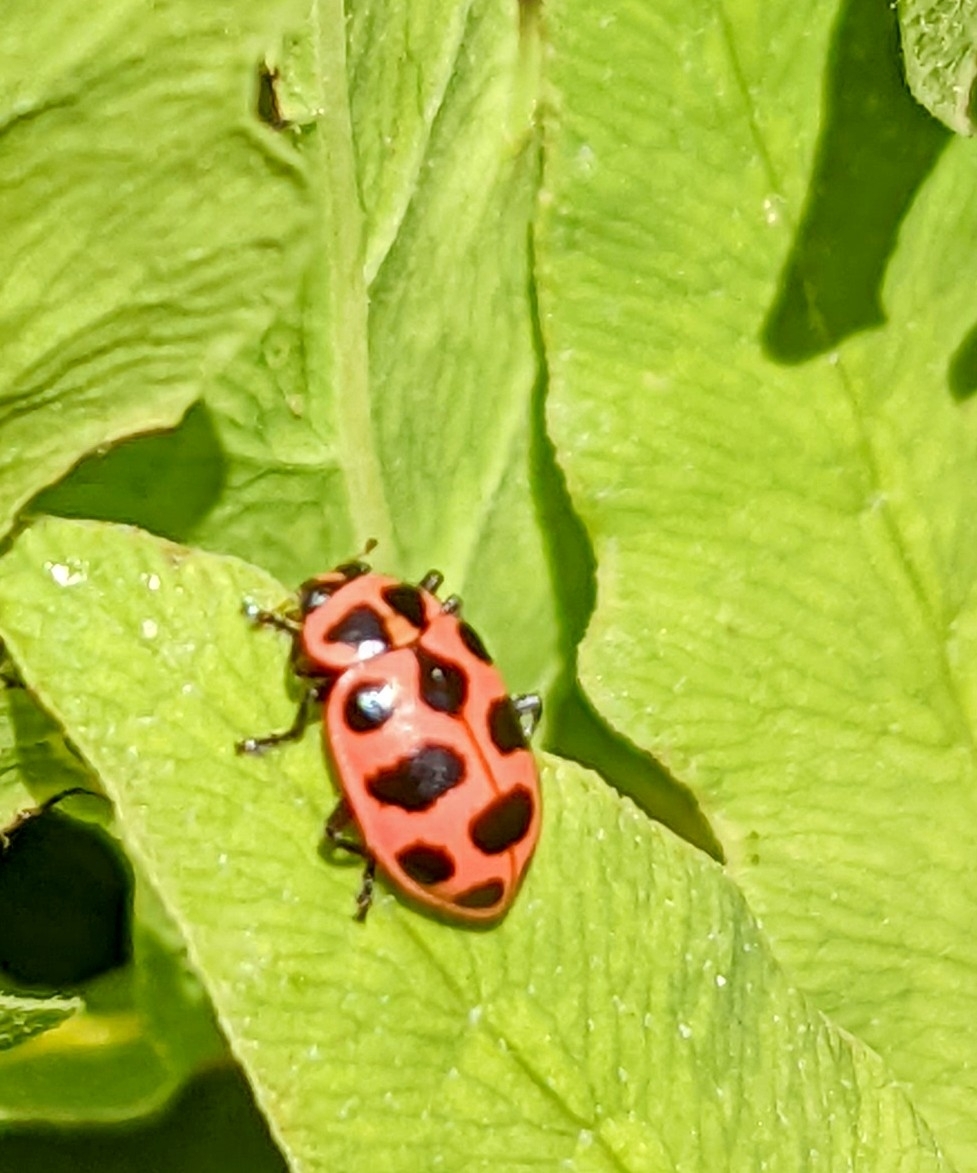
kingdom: Animalia
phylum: Arthropoda
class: Insecta
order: Coleoptera
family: Coccinellidae
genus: Coleomegilla
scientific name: Coleomegilla maculata
